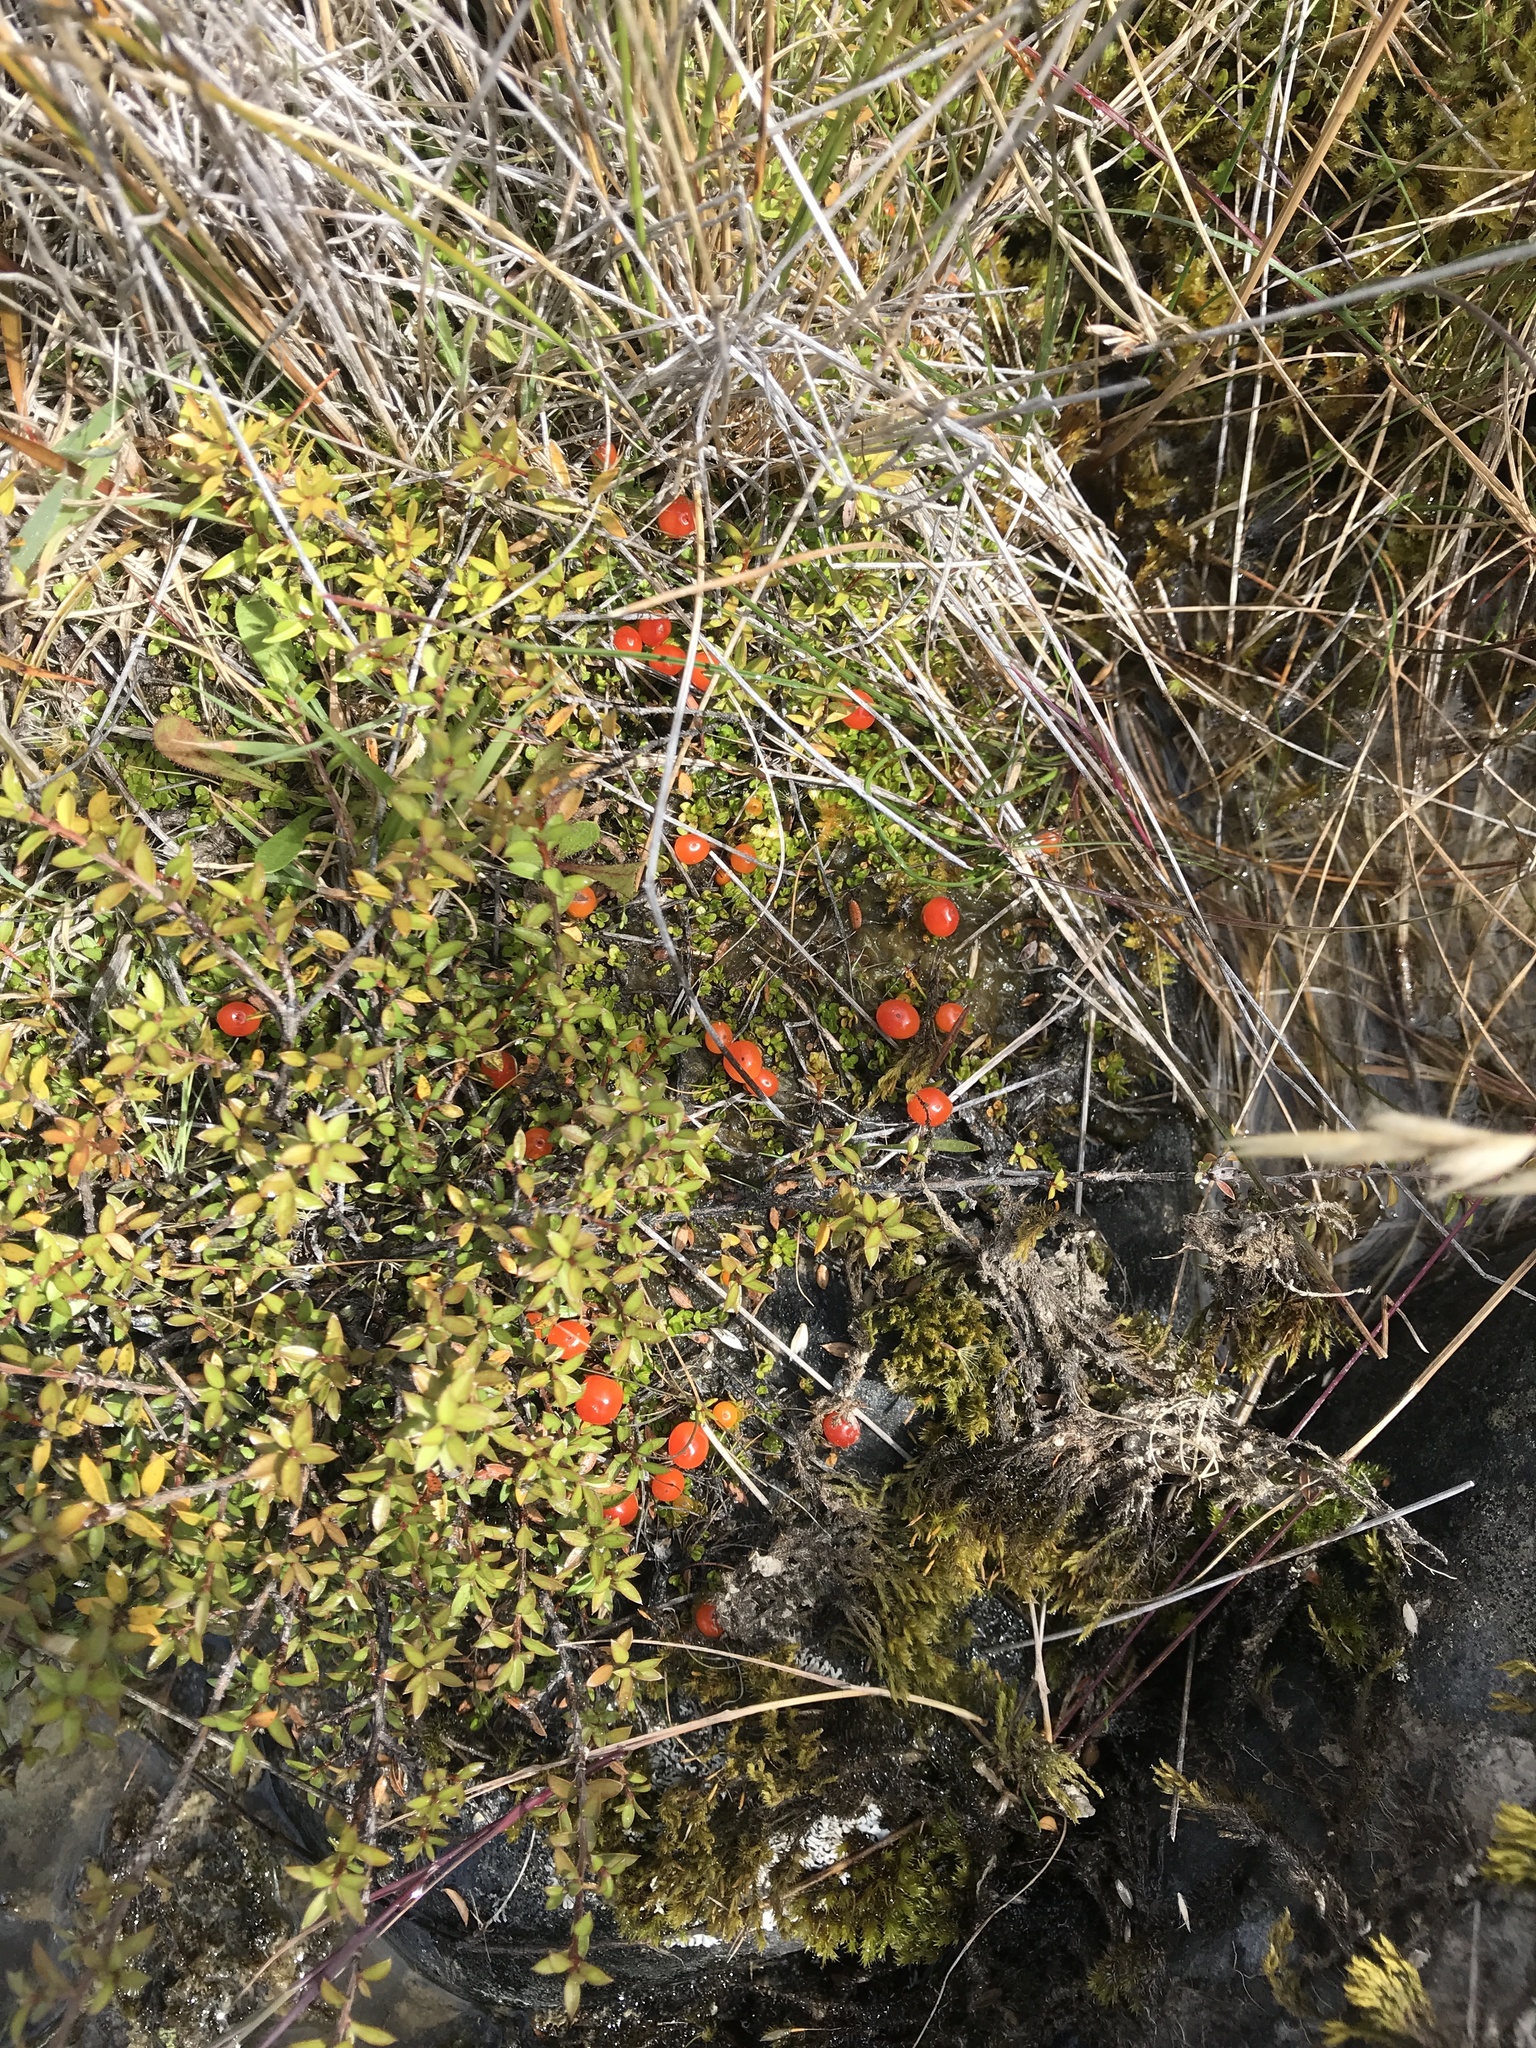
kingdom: Plantae
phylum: Tracheophyta
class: Magnoliopsida
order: Gentianales
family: Rubiaceae
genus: Nertera
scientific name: Nertera balfouriana
